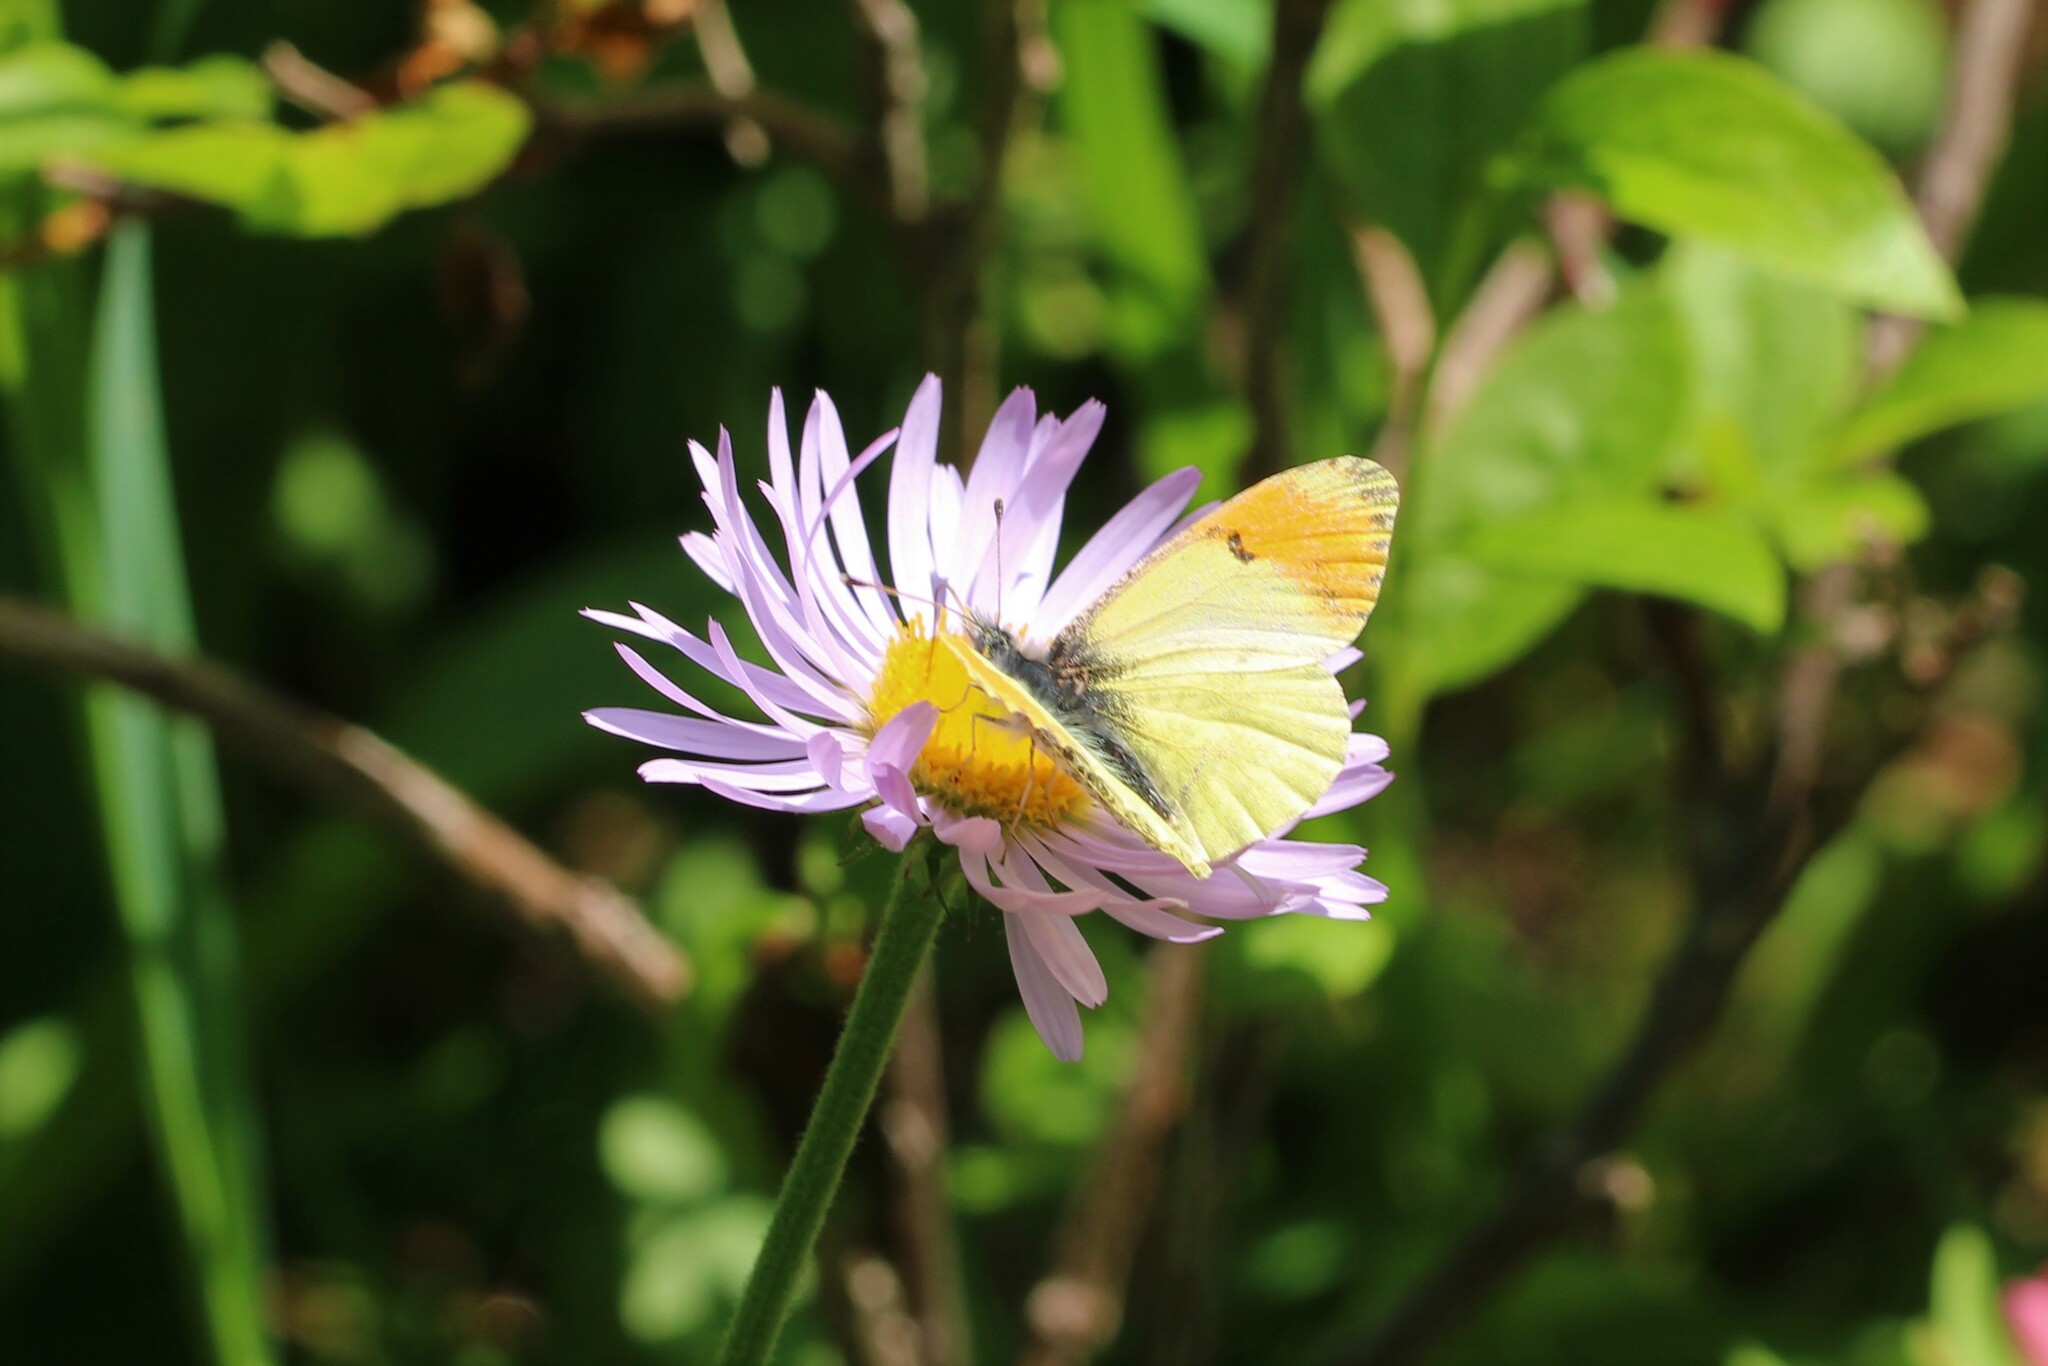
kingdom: Animalia
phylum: Arthropoda
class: Insecta
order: Lepidoptera
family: Pieridae
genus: Anthocharis
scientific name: Anthocharis julia
